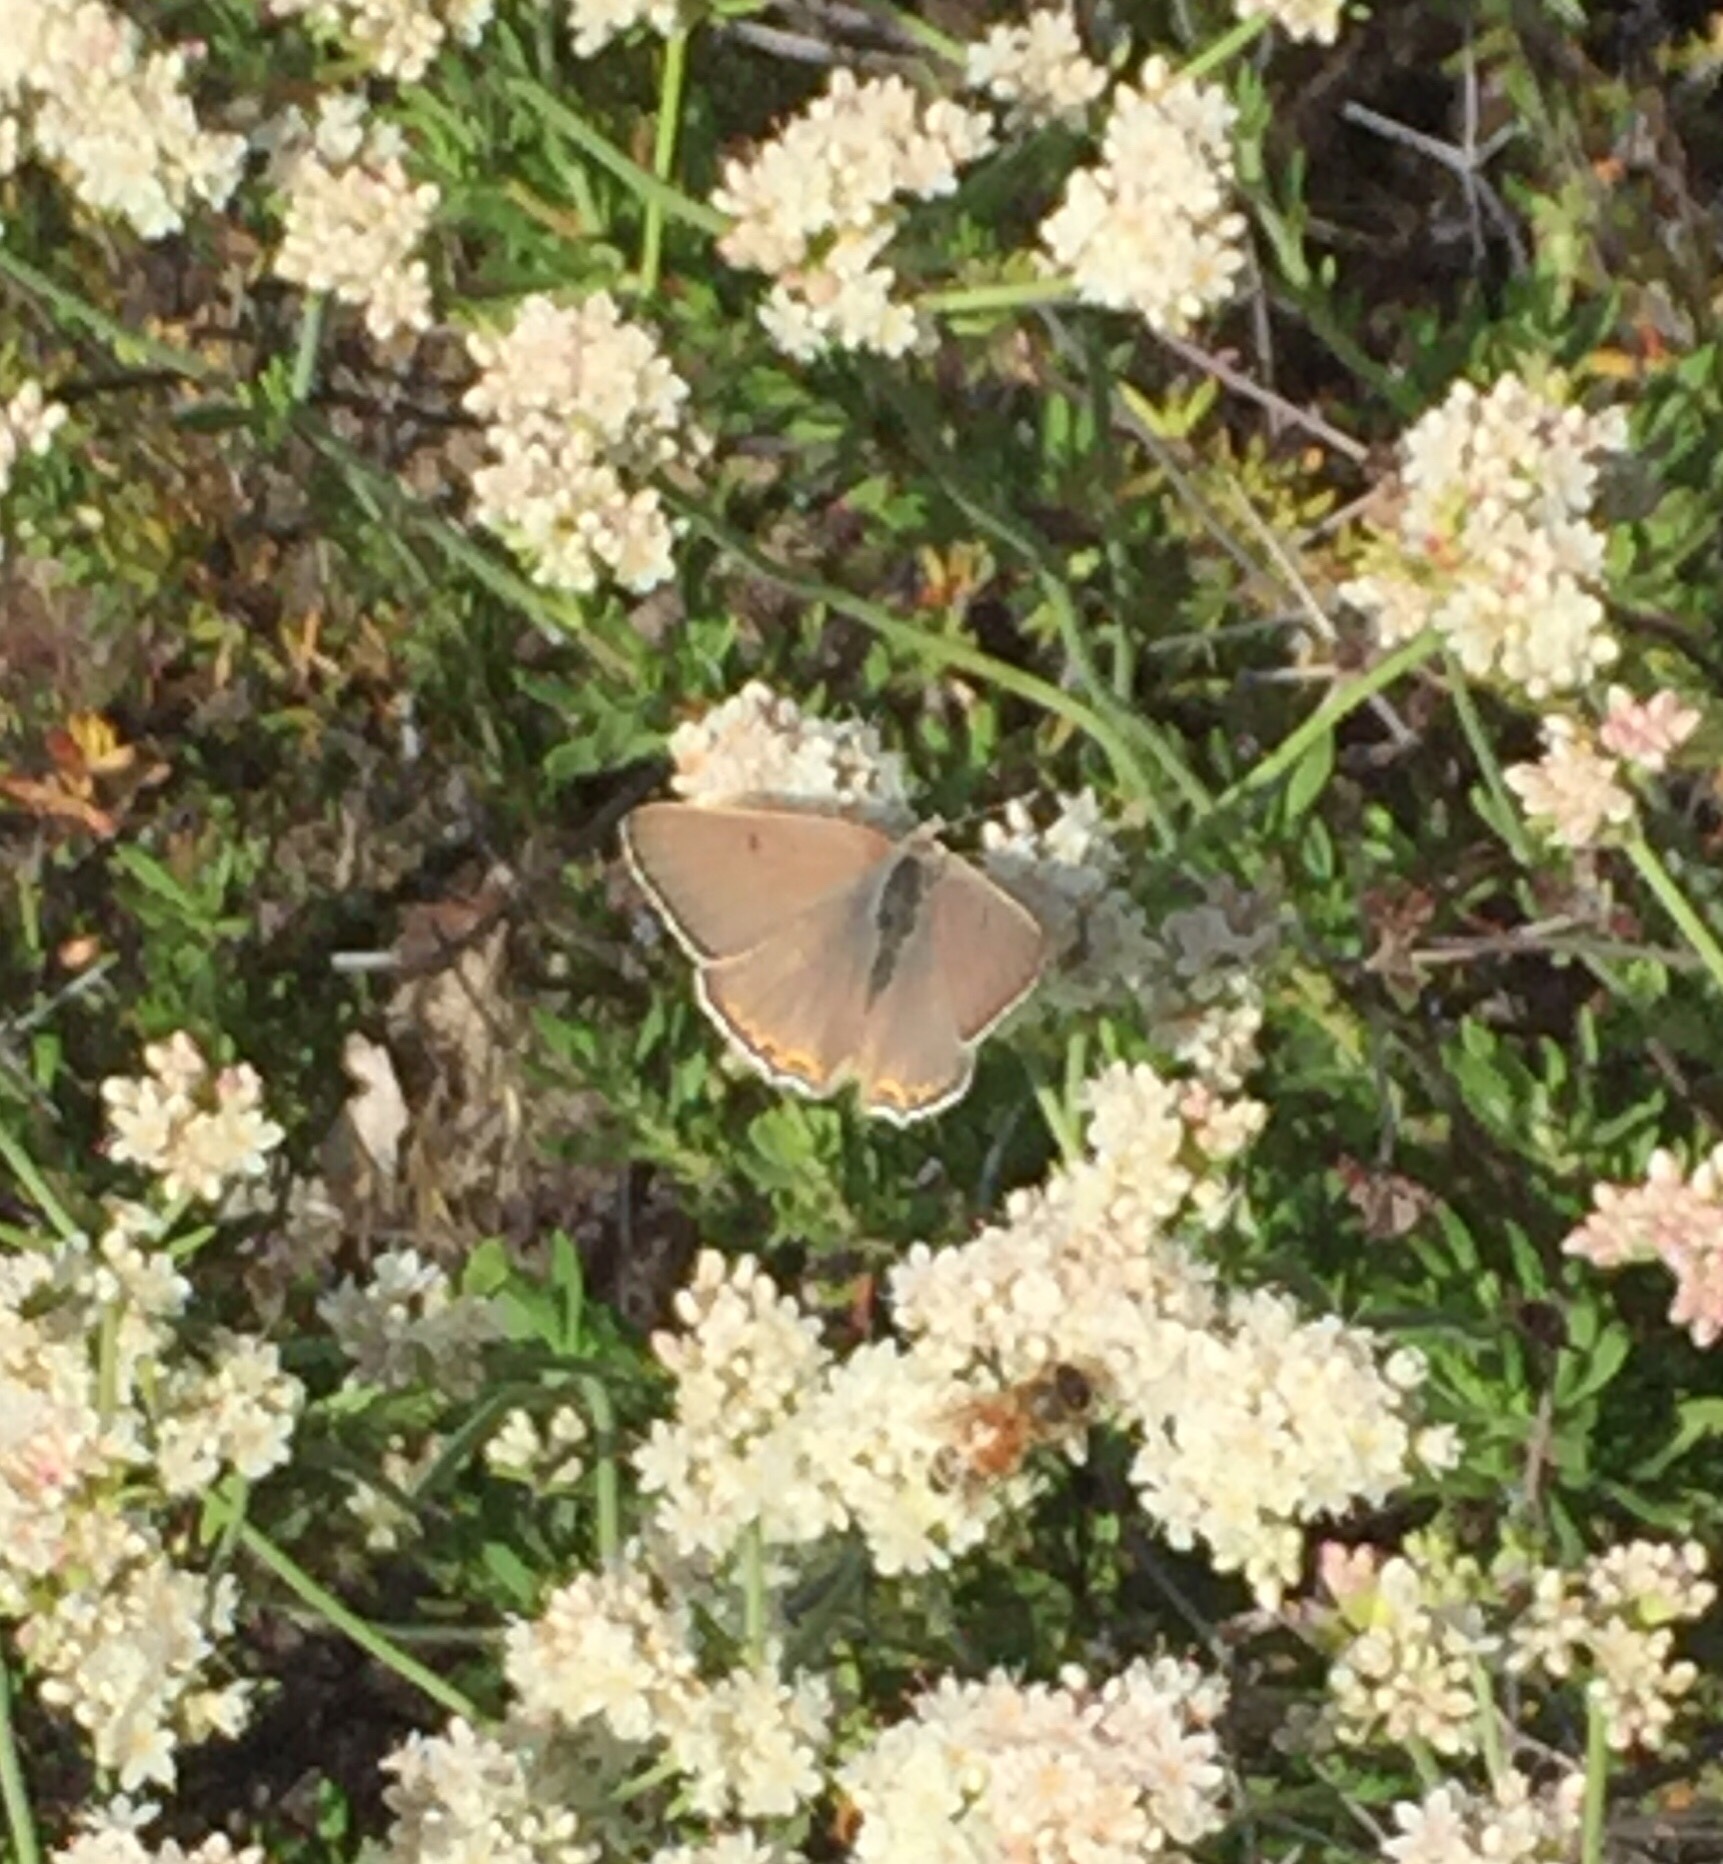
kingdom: Animalia
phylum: Arthropoda
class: Insecta
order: Lepidoptera
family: Lycaenidae
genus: Tharsalea
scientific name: Tharsalea xanthoides
